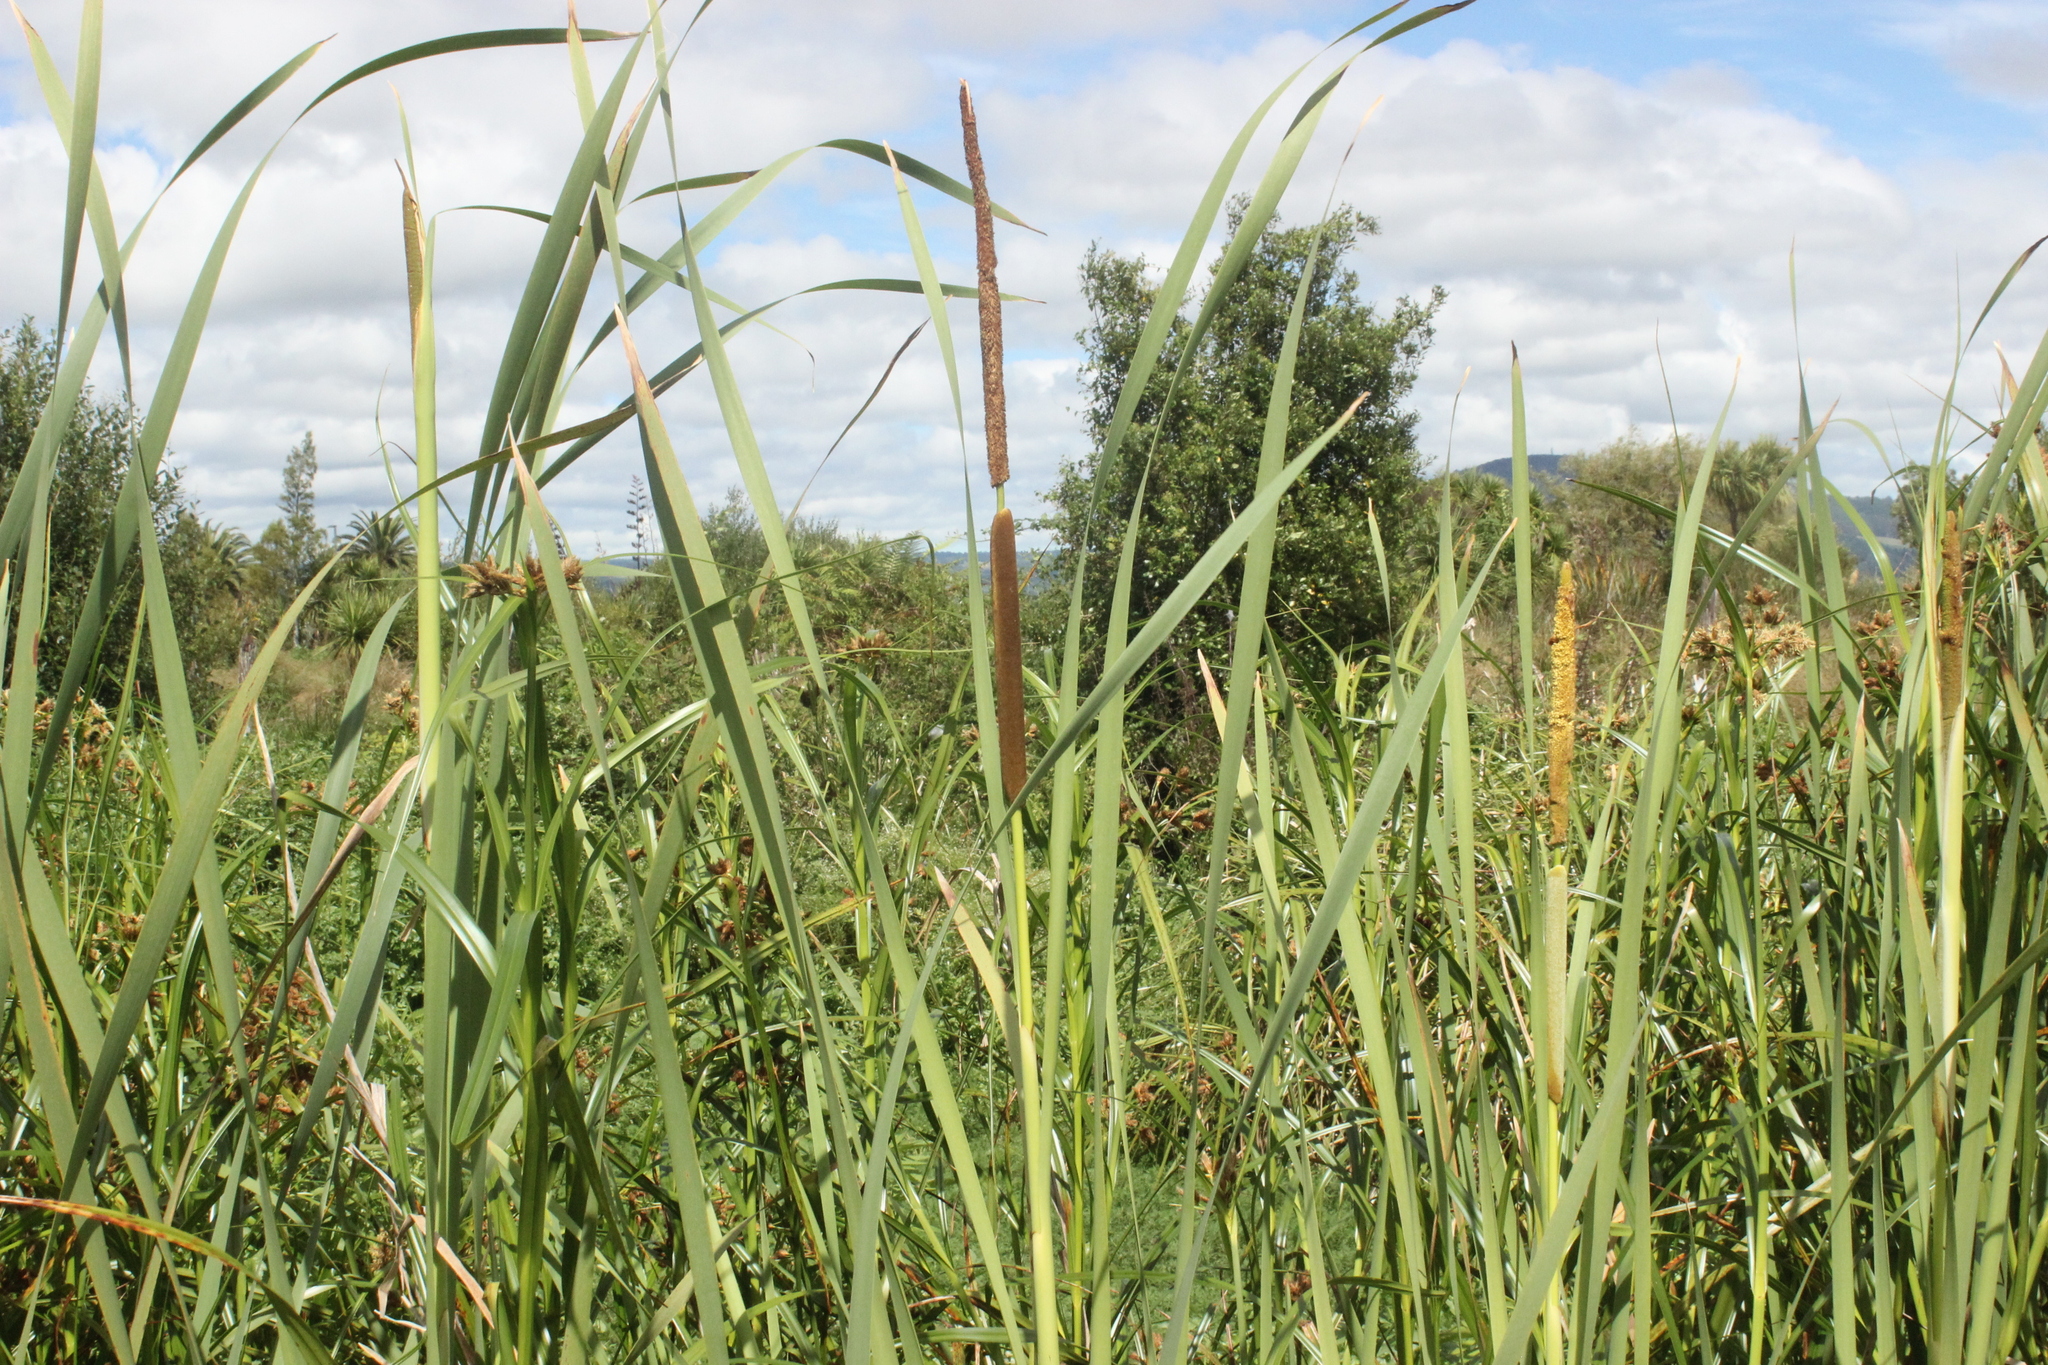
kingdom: Plantae
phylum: Tracheophyta
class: Liliopsida
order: Poales
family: Typhaceae
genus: Typha
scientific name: Typha orientalis
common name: Bullrush
